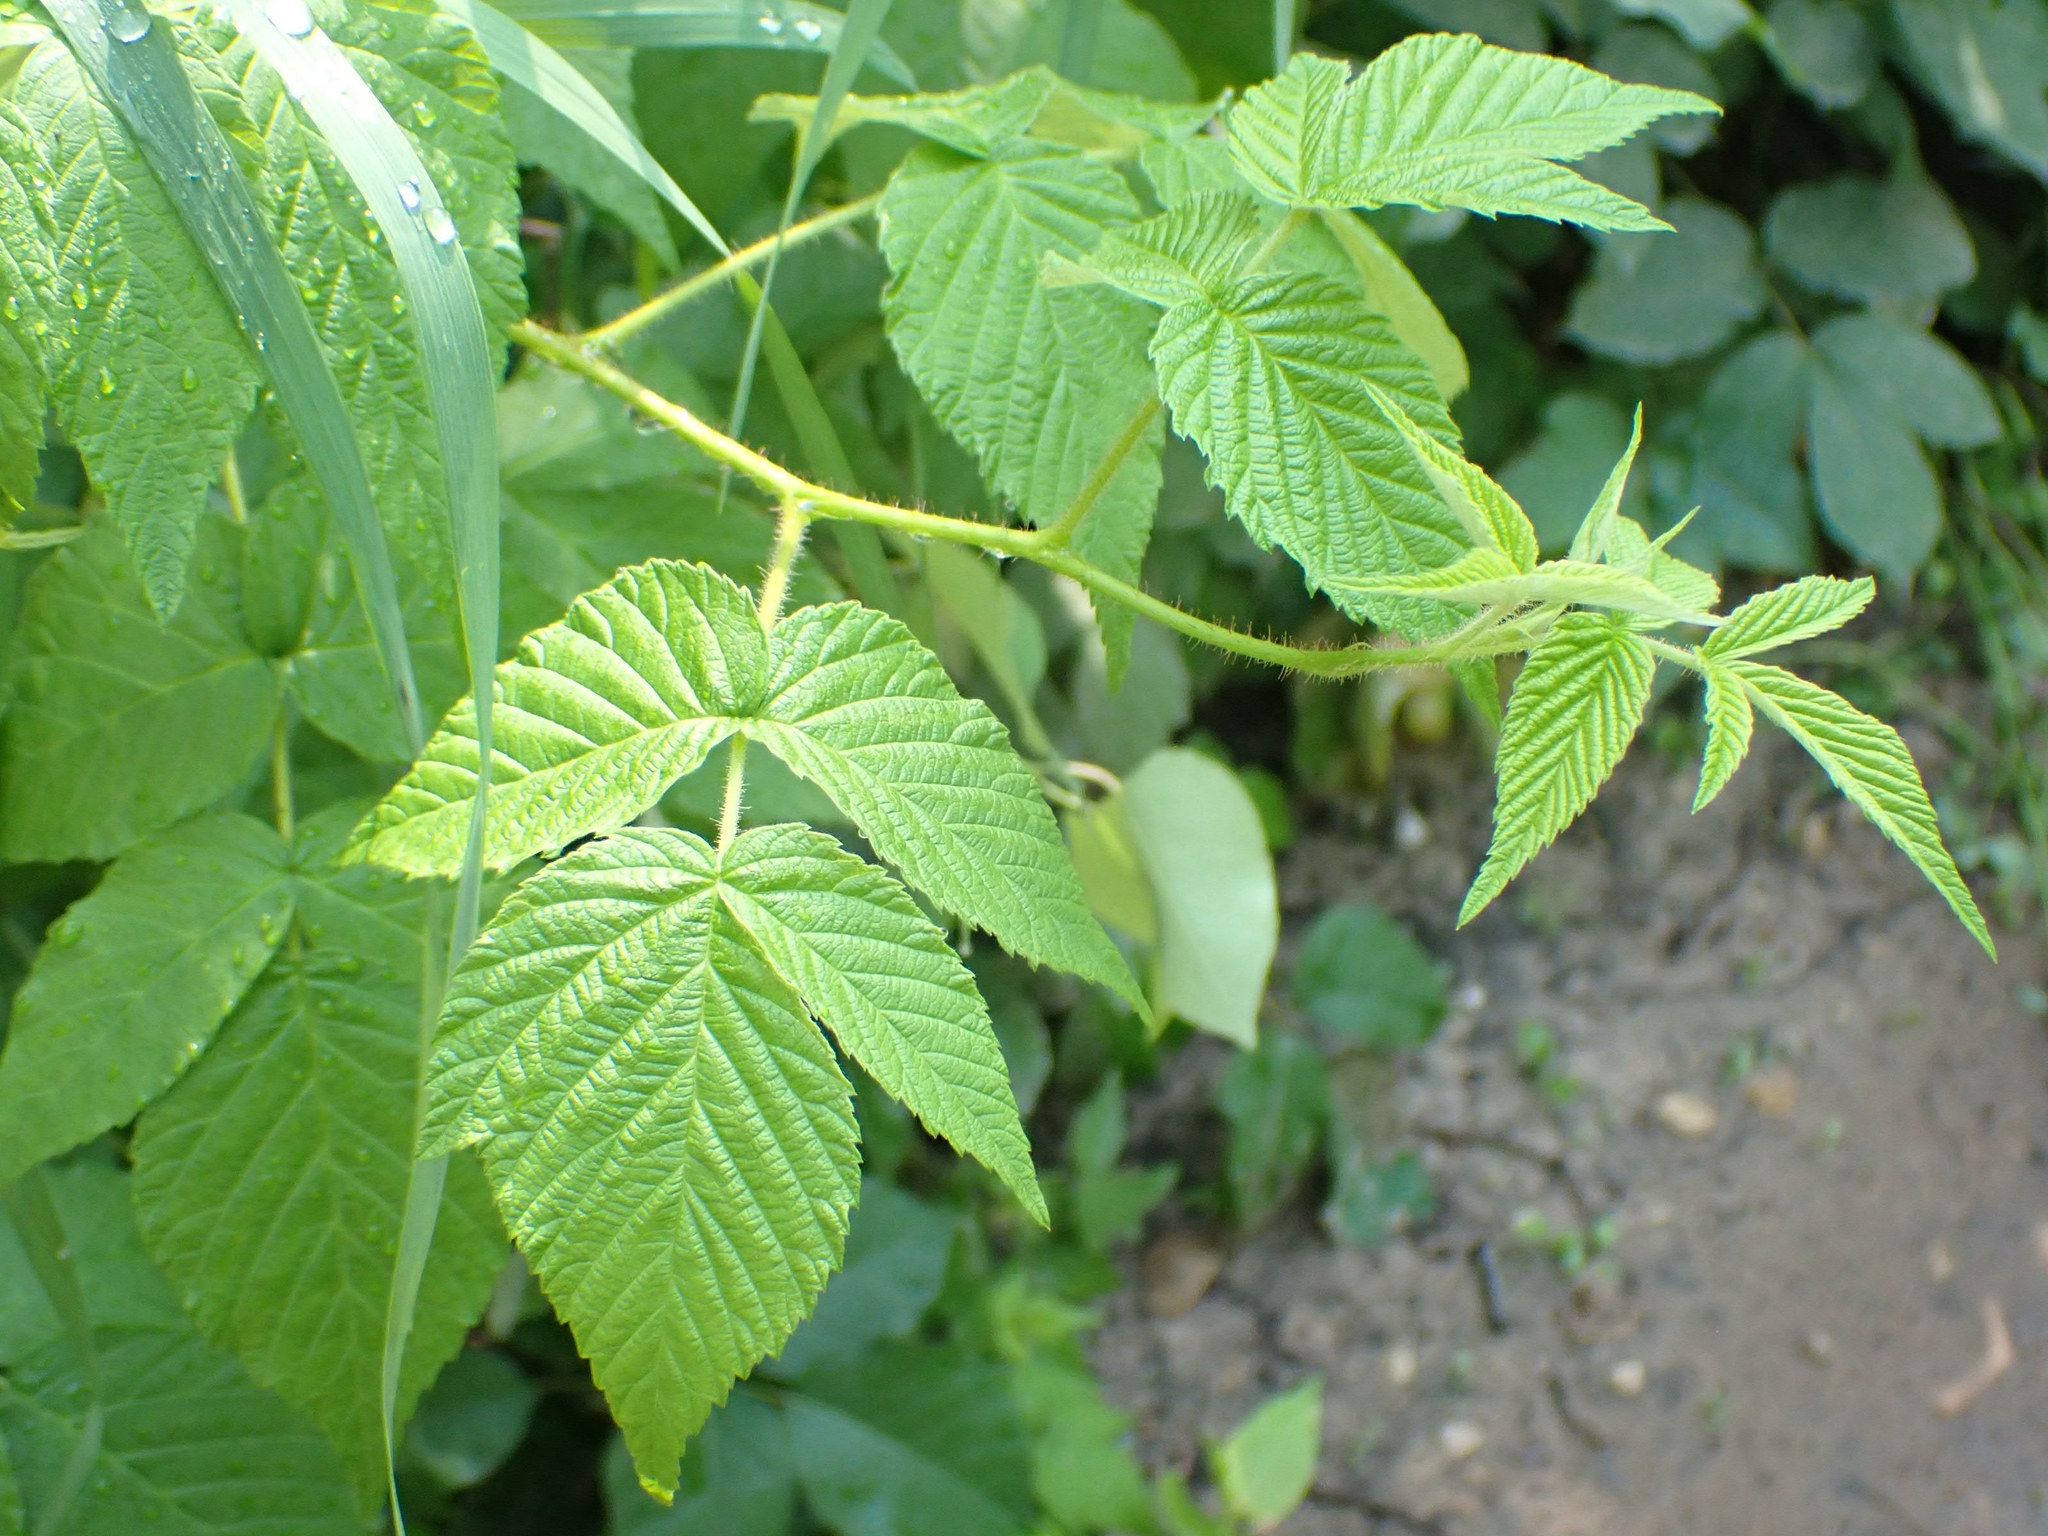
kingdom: Plantae
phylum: Tracheophyta
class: Magnoliopsida
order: Rosales
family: Rosaceae
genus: Rubus
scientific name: Rubus idaeus
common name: Raspberry
